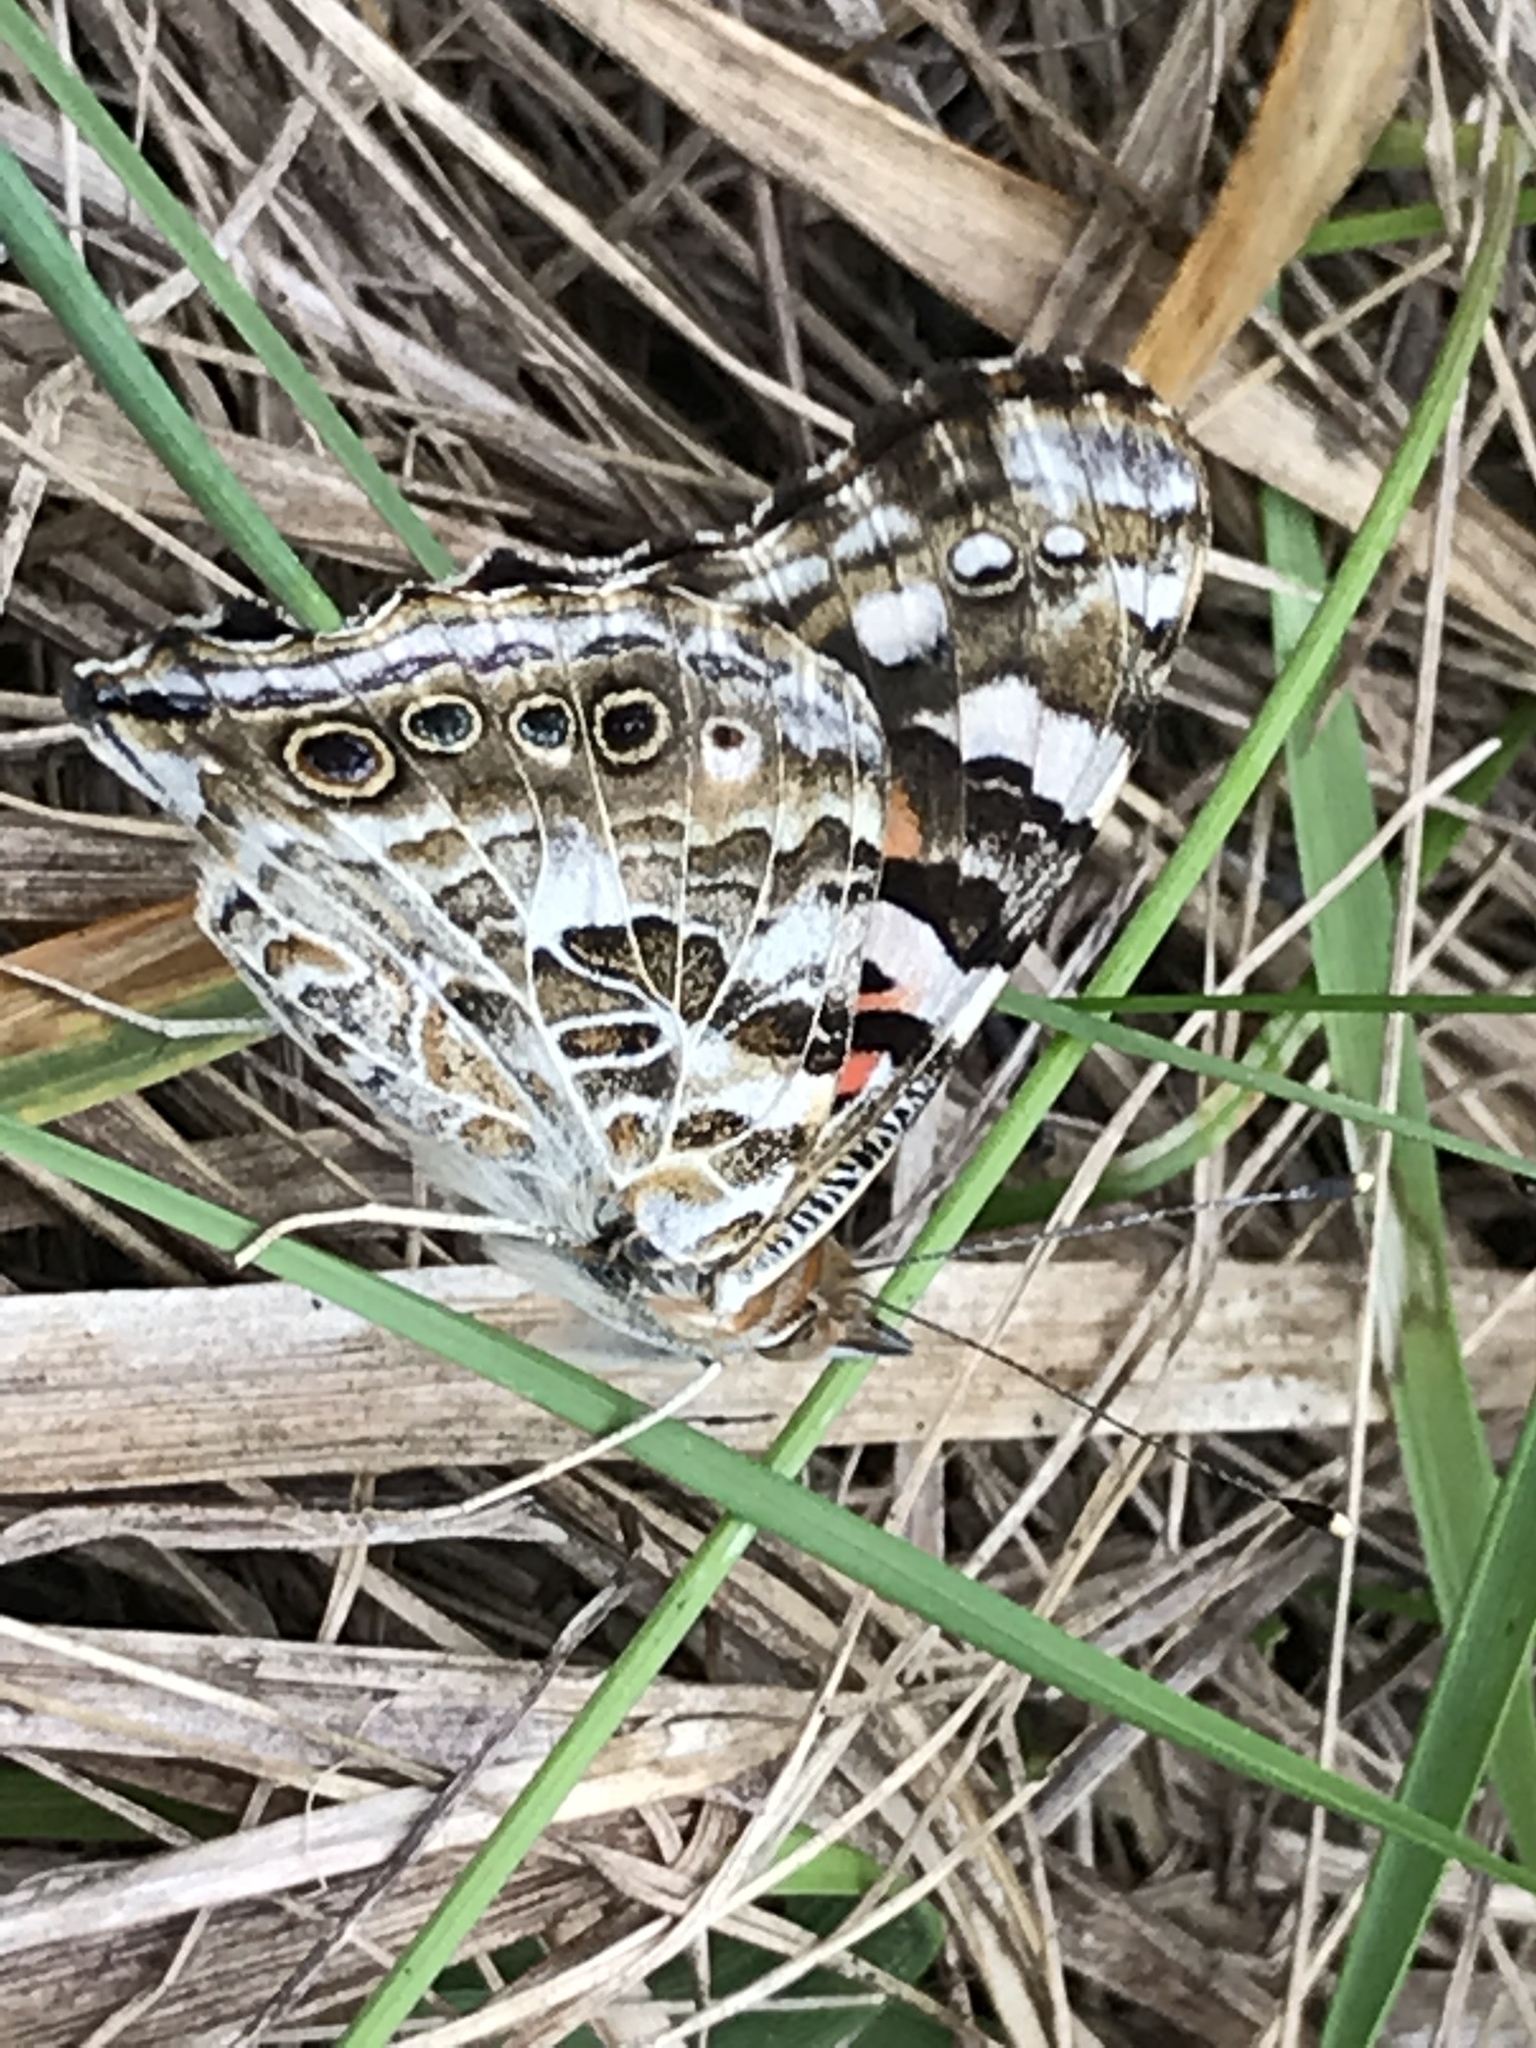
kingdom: Animalia
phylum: Arthropoda
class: Insecta
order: Lepidoptera
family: Nymphalidae
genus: Vanessa
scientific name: Vanessa cardui
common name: Painted lady
